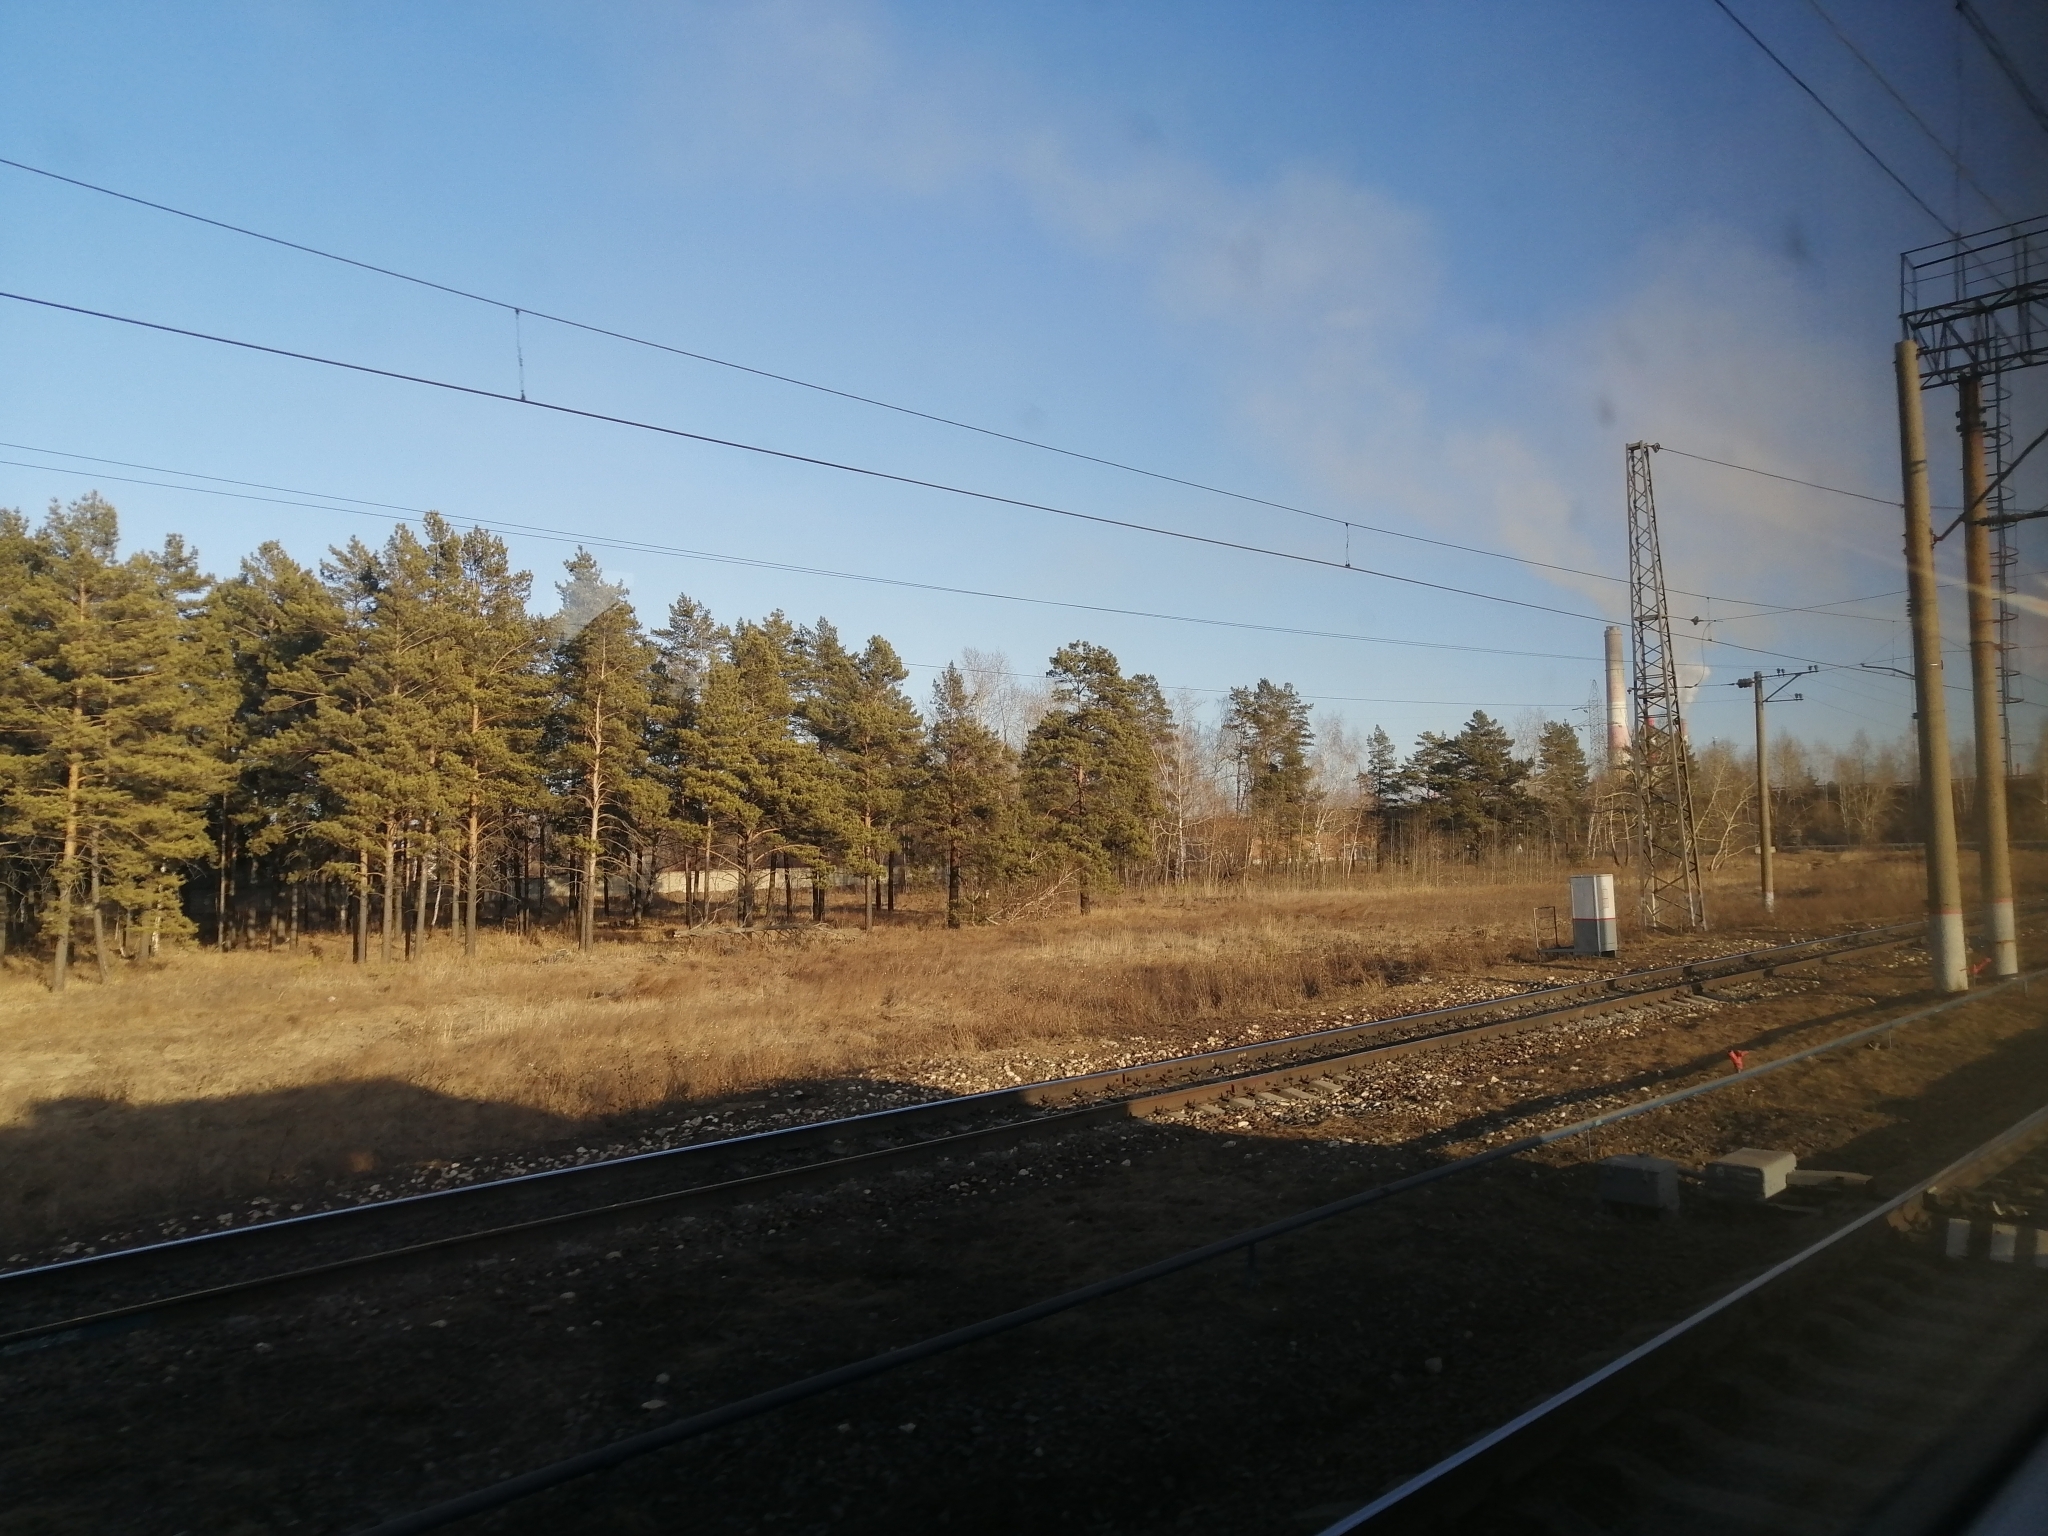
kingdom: Plantae
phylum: Tracheophyta
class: Pinopsida
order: Pinales
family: Pinaceae
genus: Pinus
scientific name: Pinus sylvestris
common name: Scots pine
